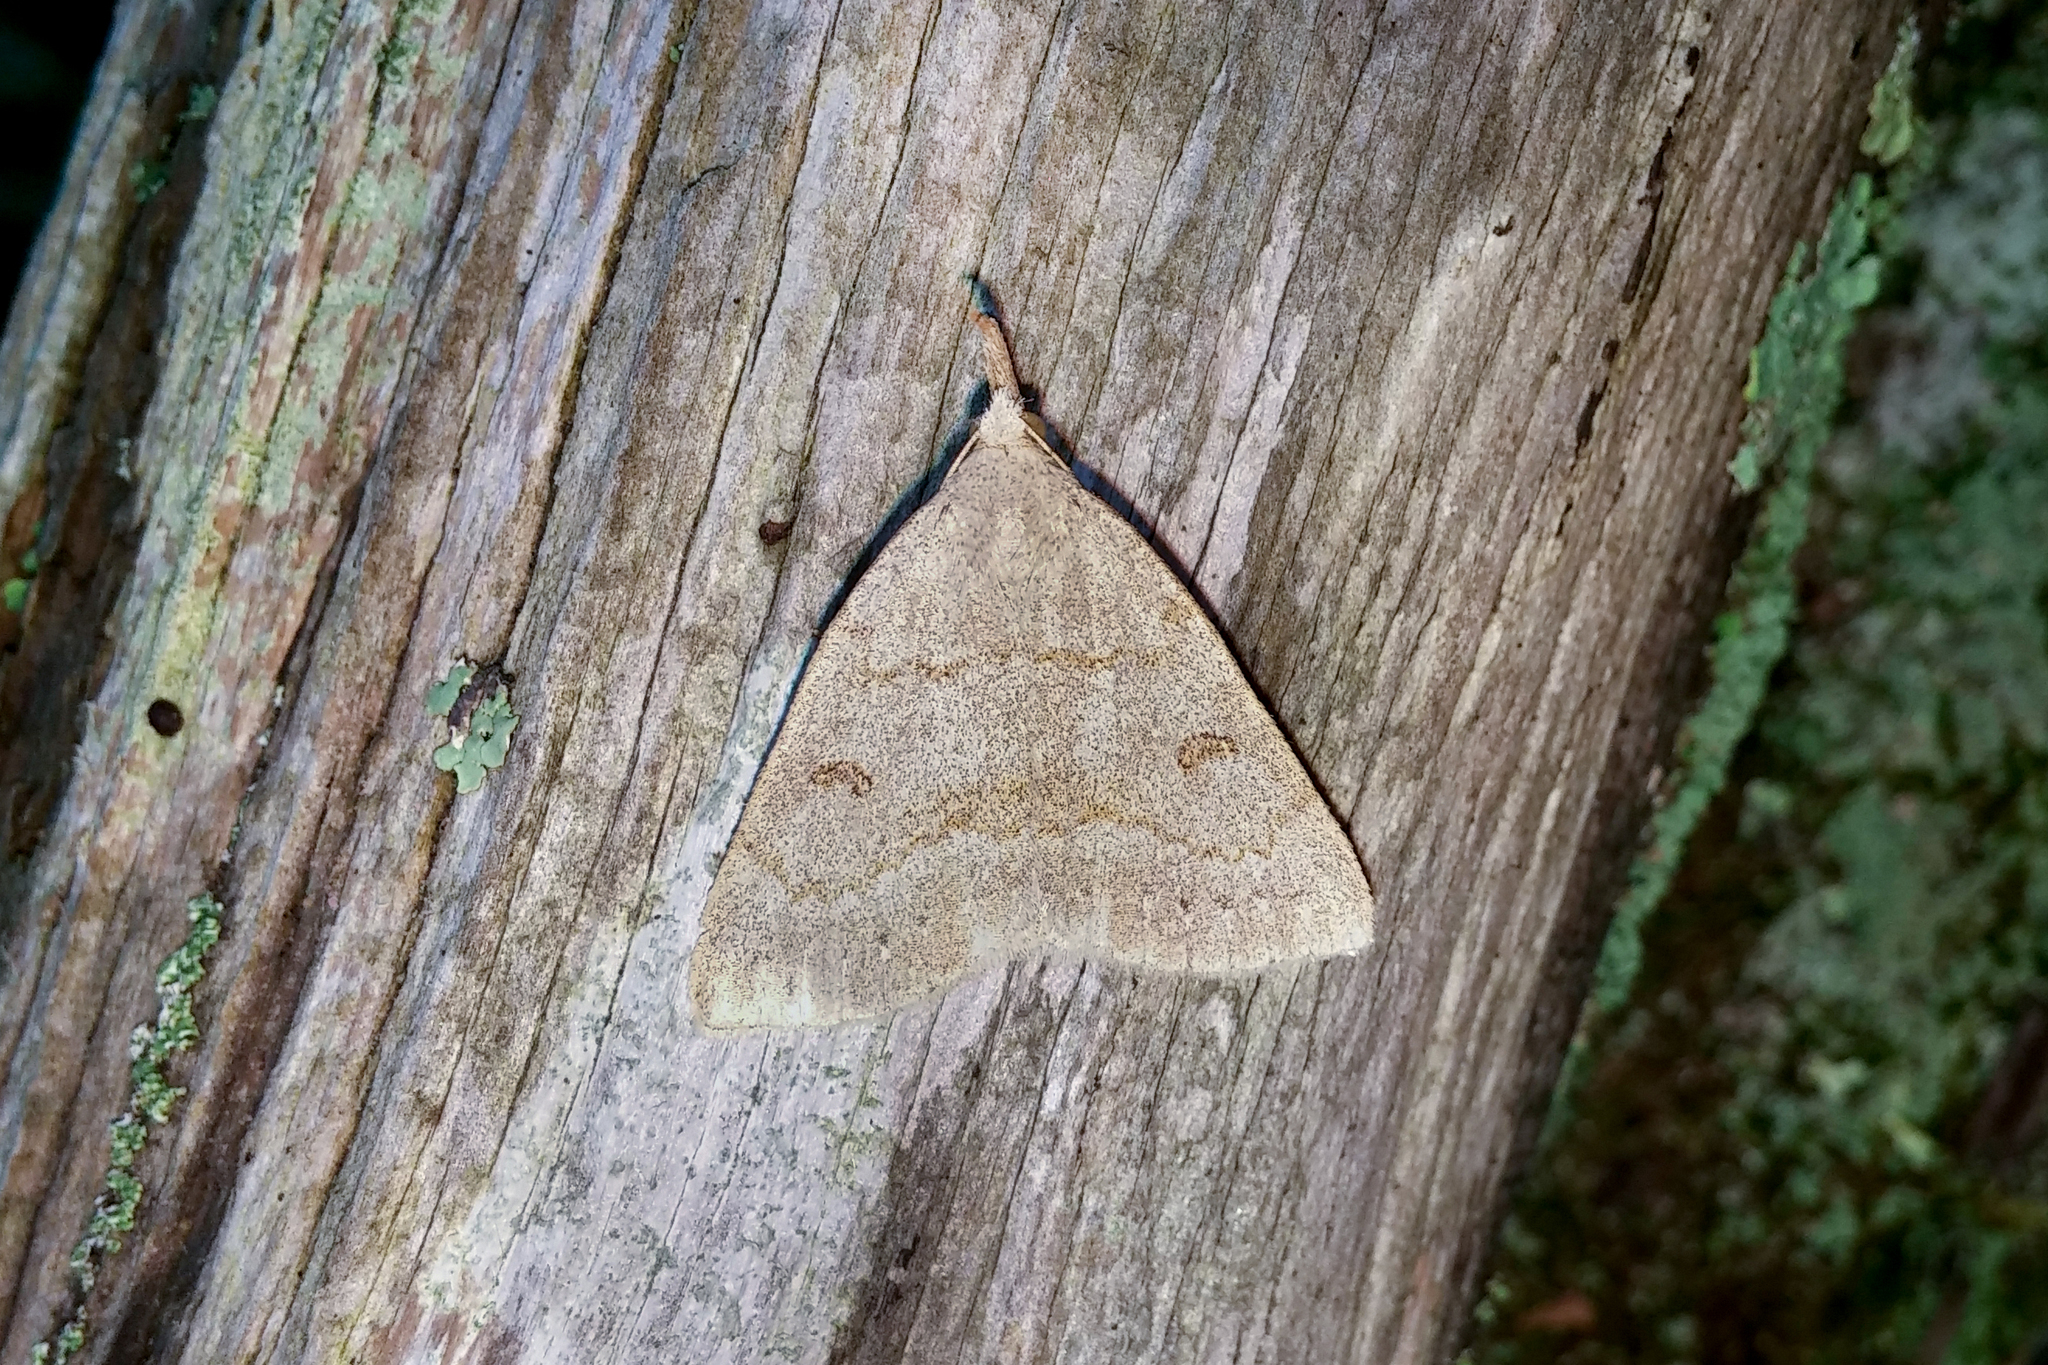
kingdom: Animalia
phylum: Arthropoda
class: Insecta
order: Lepidoptera
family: Erebidae
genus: Macrochilo
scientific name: Macrochilo morbidalis
